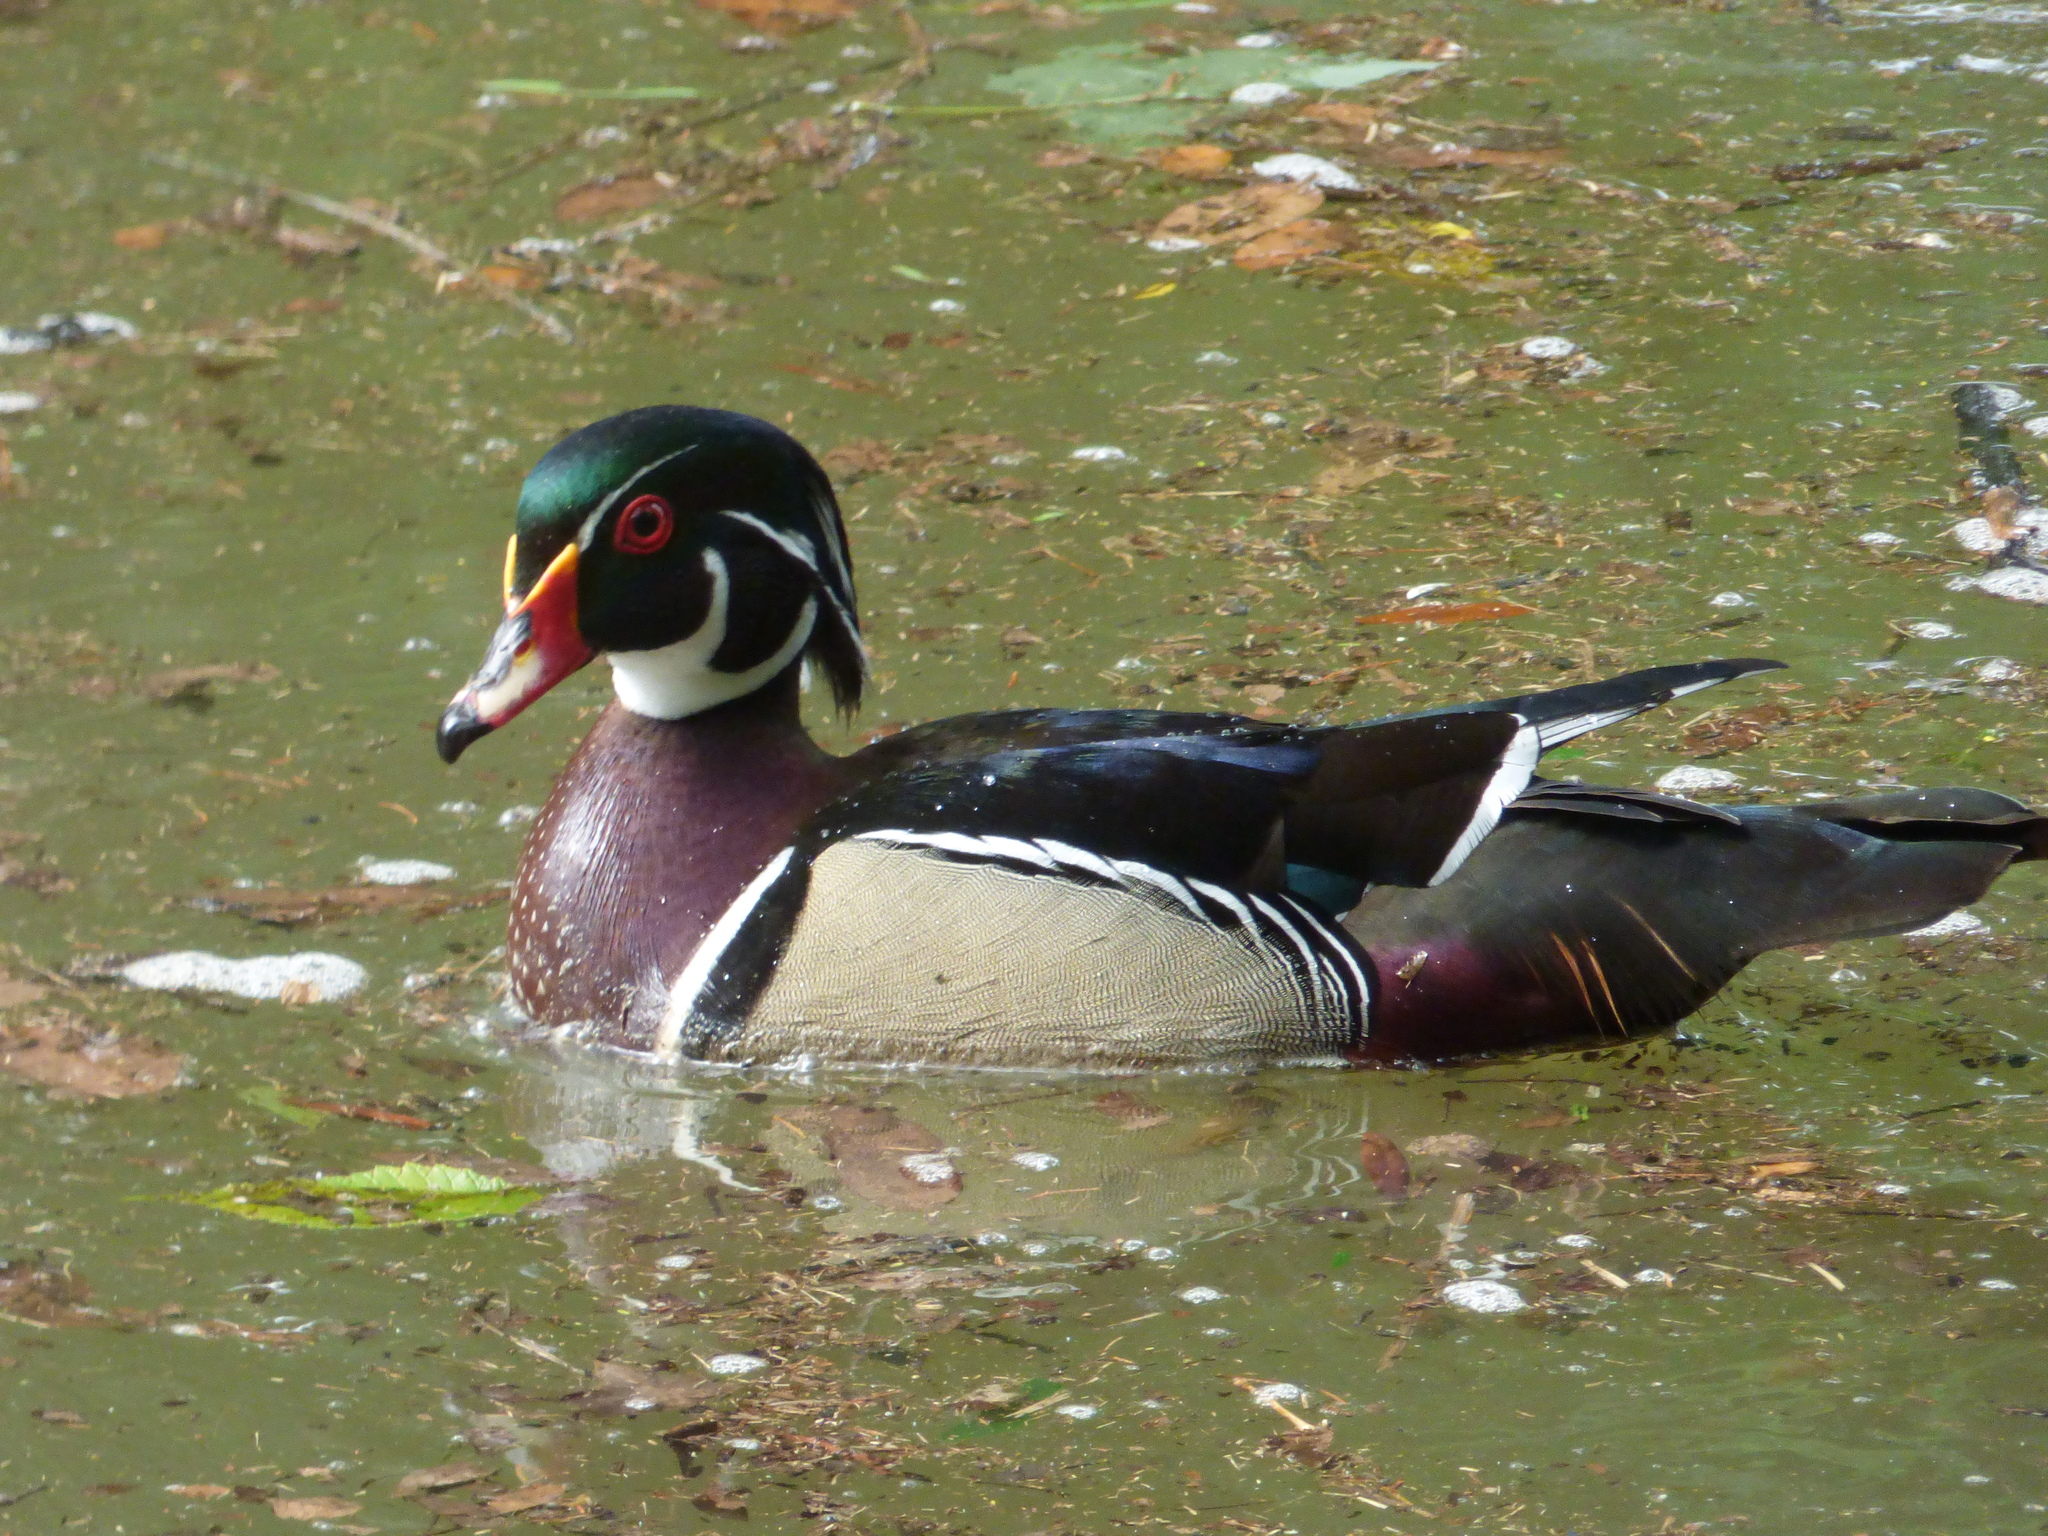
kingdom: Animalia
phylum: Chordata
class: Aves
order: Anseriformes
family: Anatidae
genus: Aix
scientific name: Aix sponsa
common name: Wood duck
